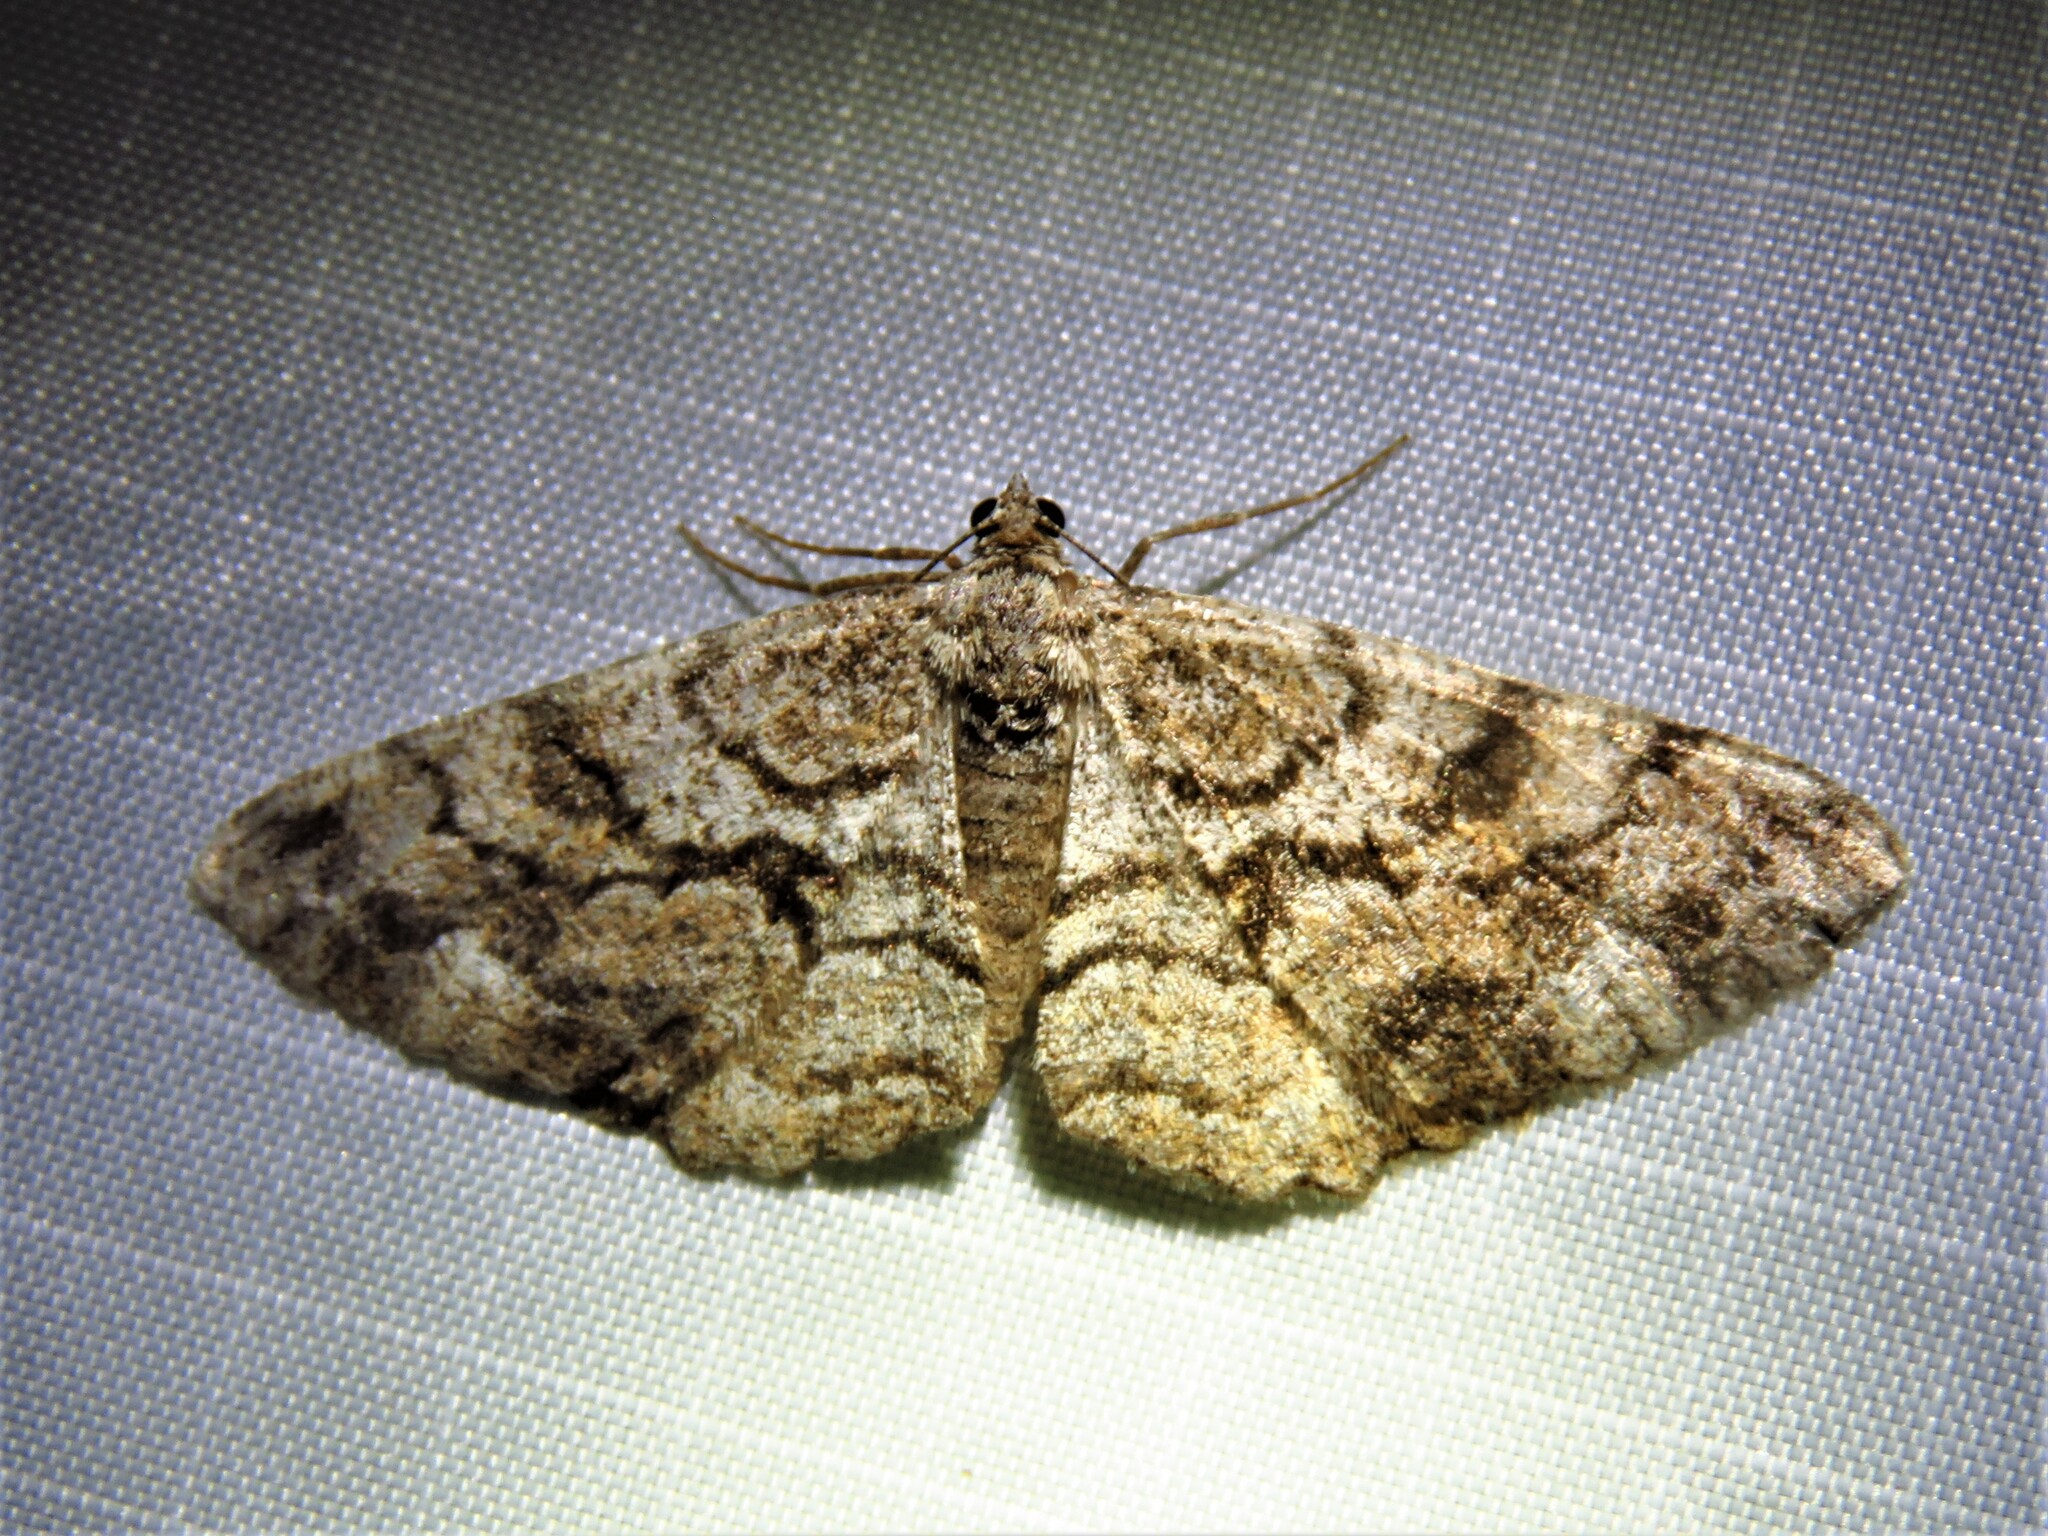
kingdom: Animalia
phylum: Arthropoda
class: Insecta
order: Lepidoptera
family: Geometridae
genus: Peribatodes
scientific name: Peribatodes secundaria
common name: Feathered beauty
